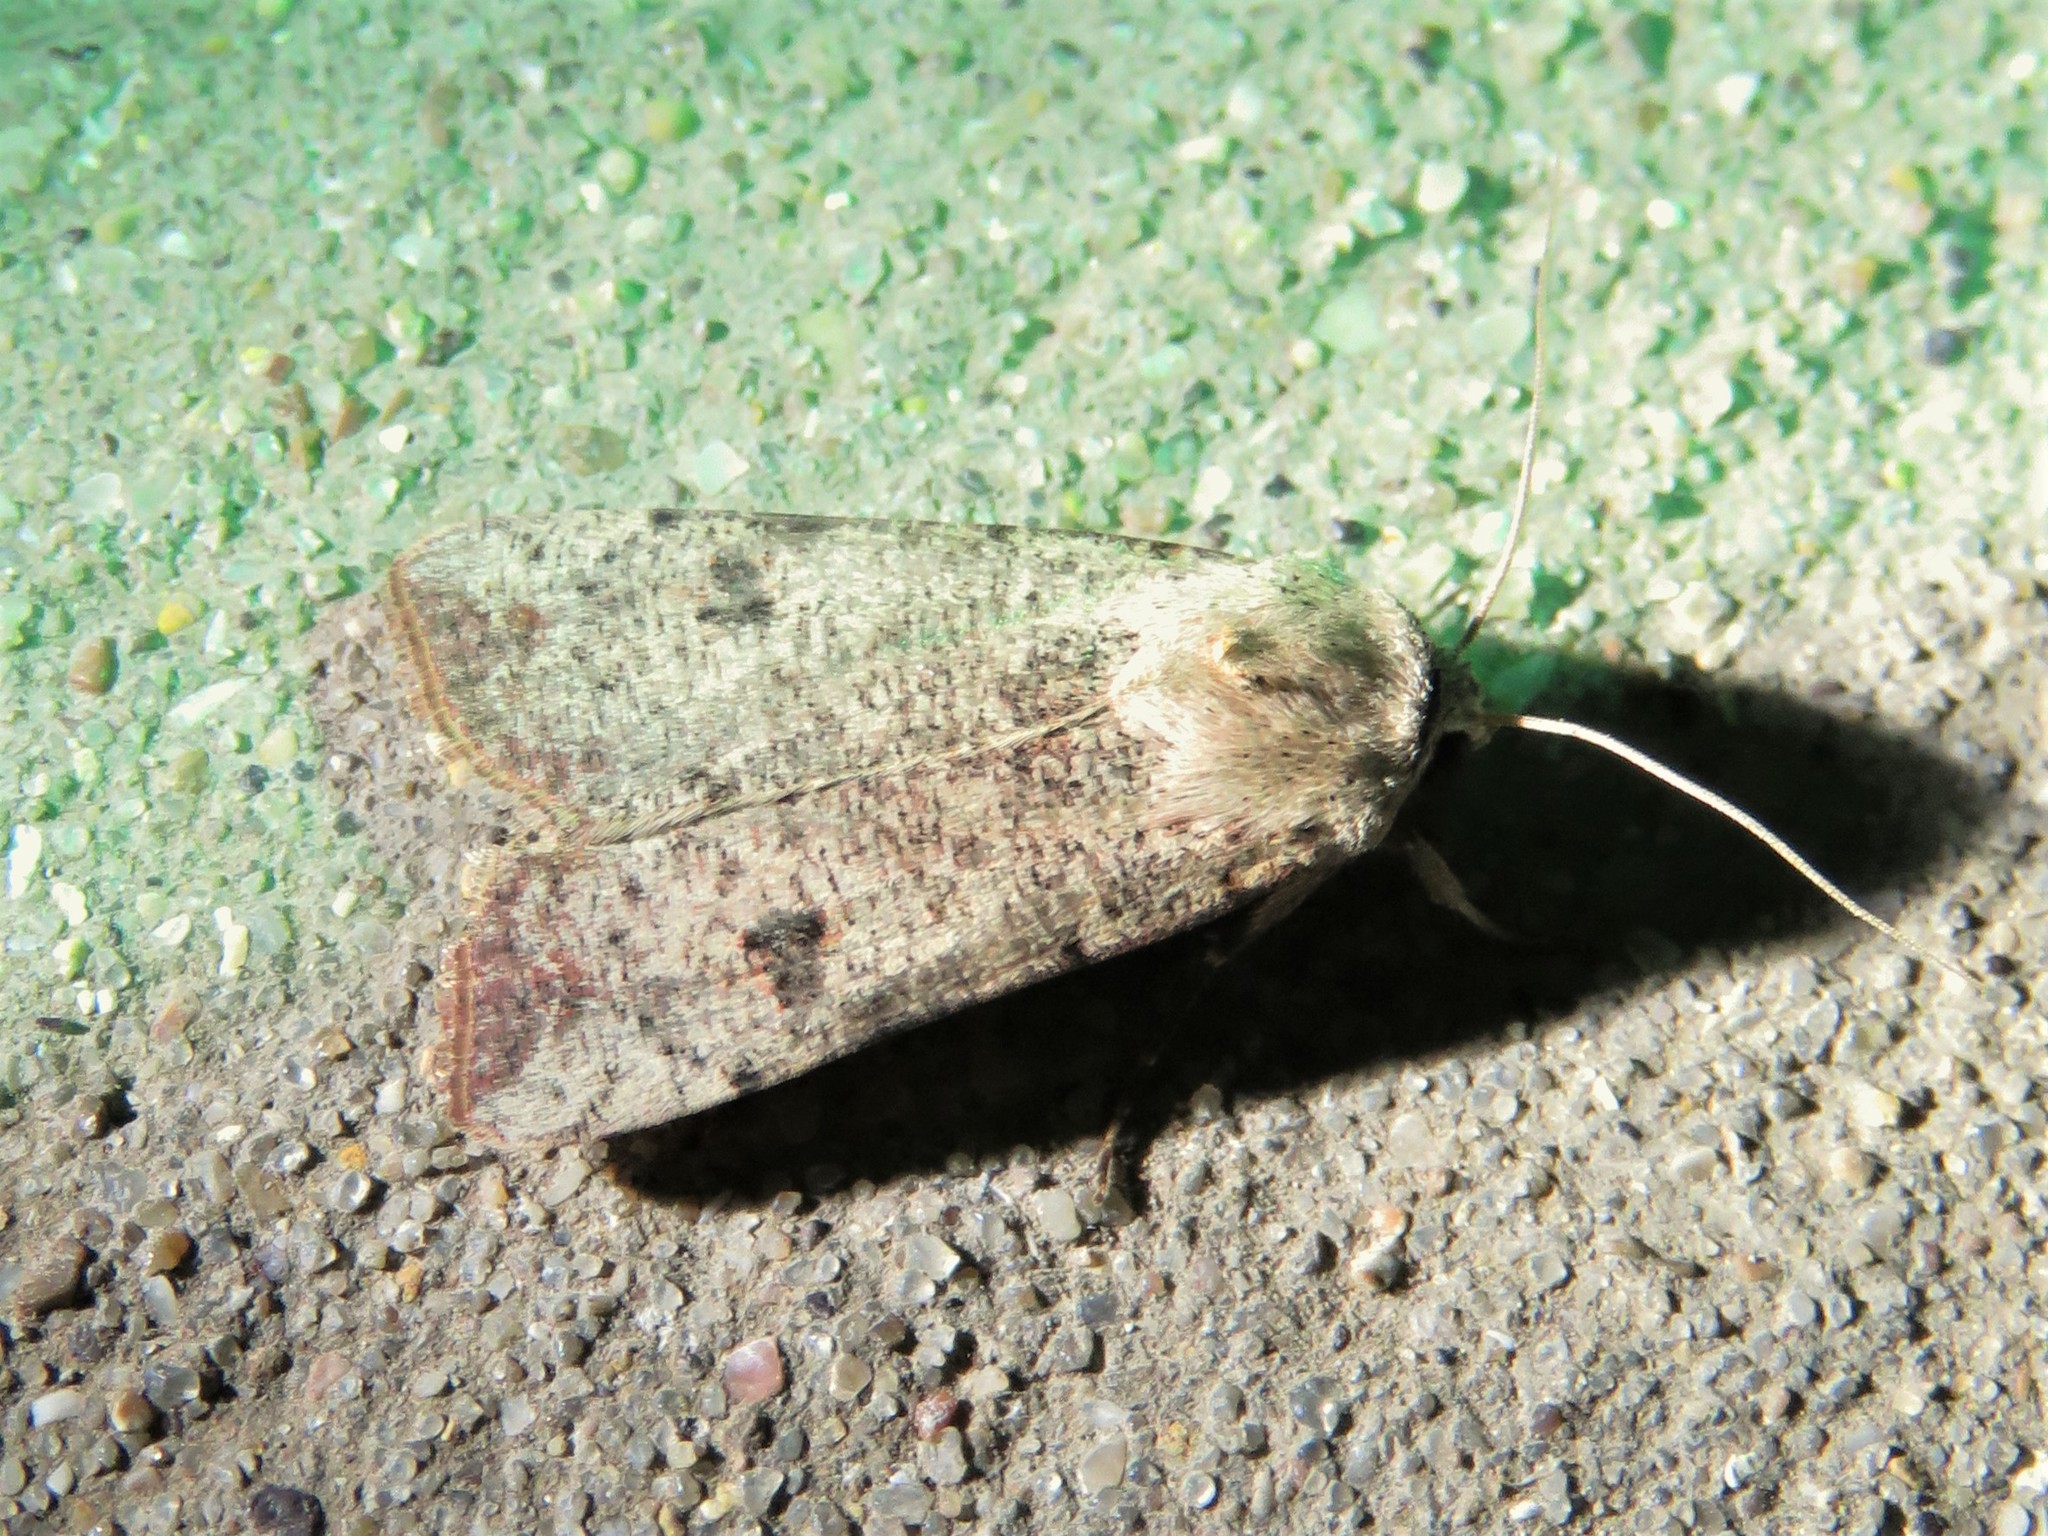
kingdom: Animalia
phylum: Arthropoda
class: Insecta
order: Lepidoptera
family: Noctuidae
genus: Anicla
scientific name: Anicla infecta
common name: Green cutworm
